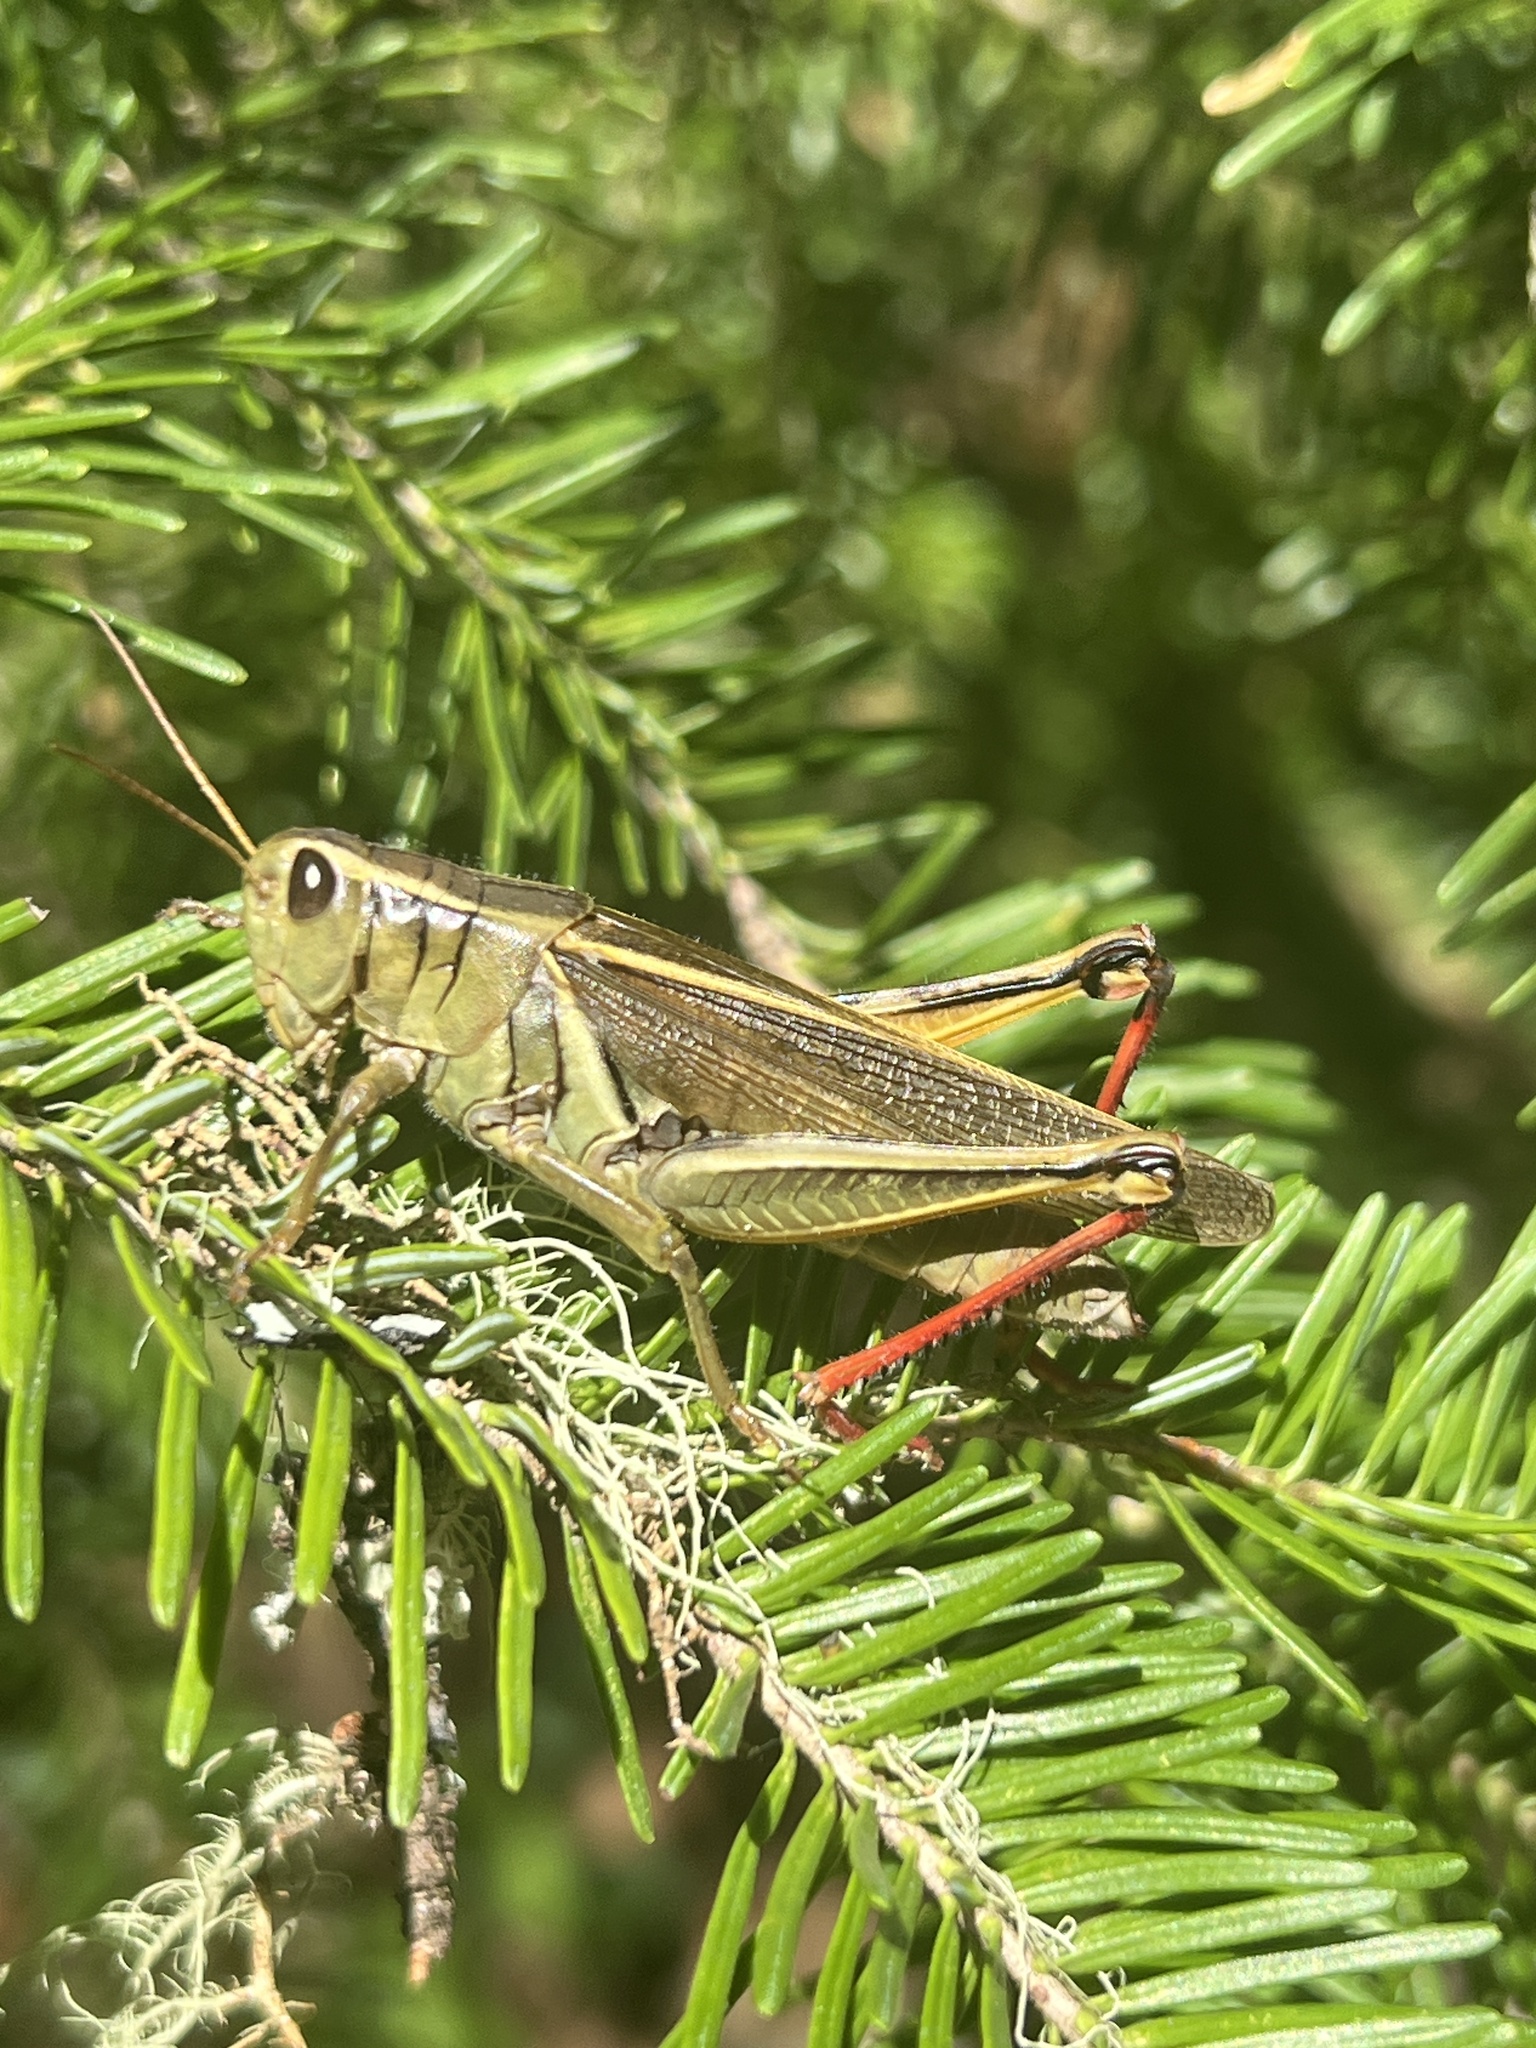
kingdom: Animalia
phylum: Arthropoda
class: Insecta
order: Orthoptera
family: Acrididae
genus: Melanoplus
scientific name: Melanoplus bivittatus
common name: Two-striped grasshopper
